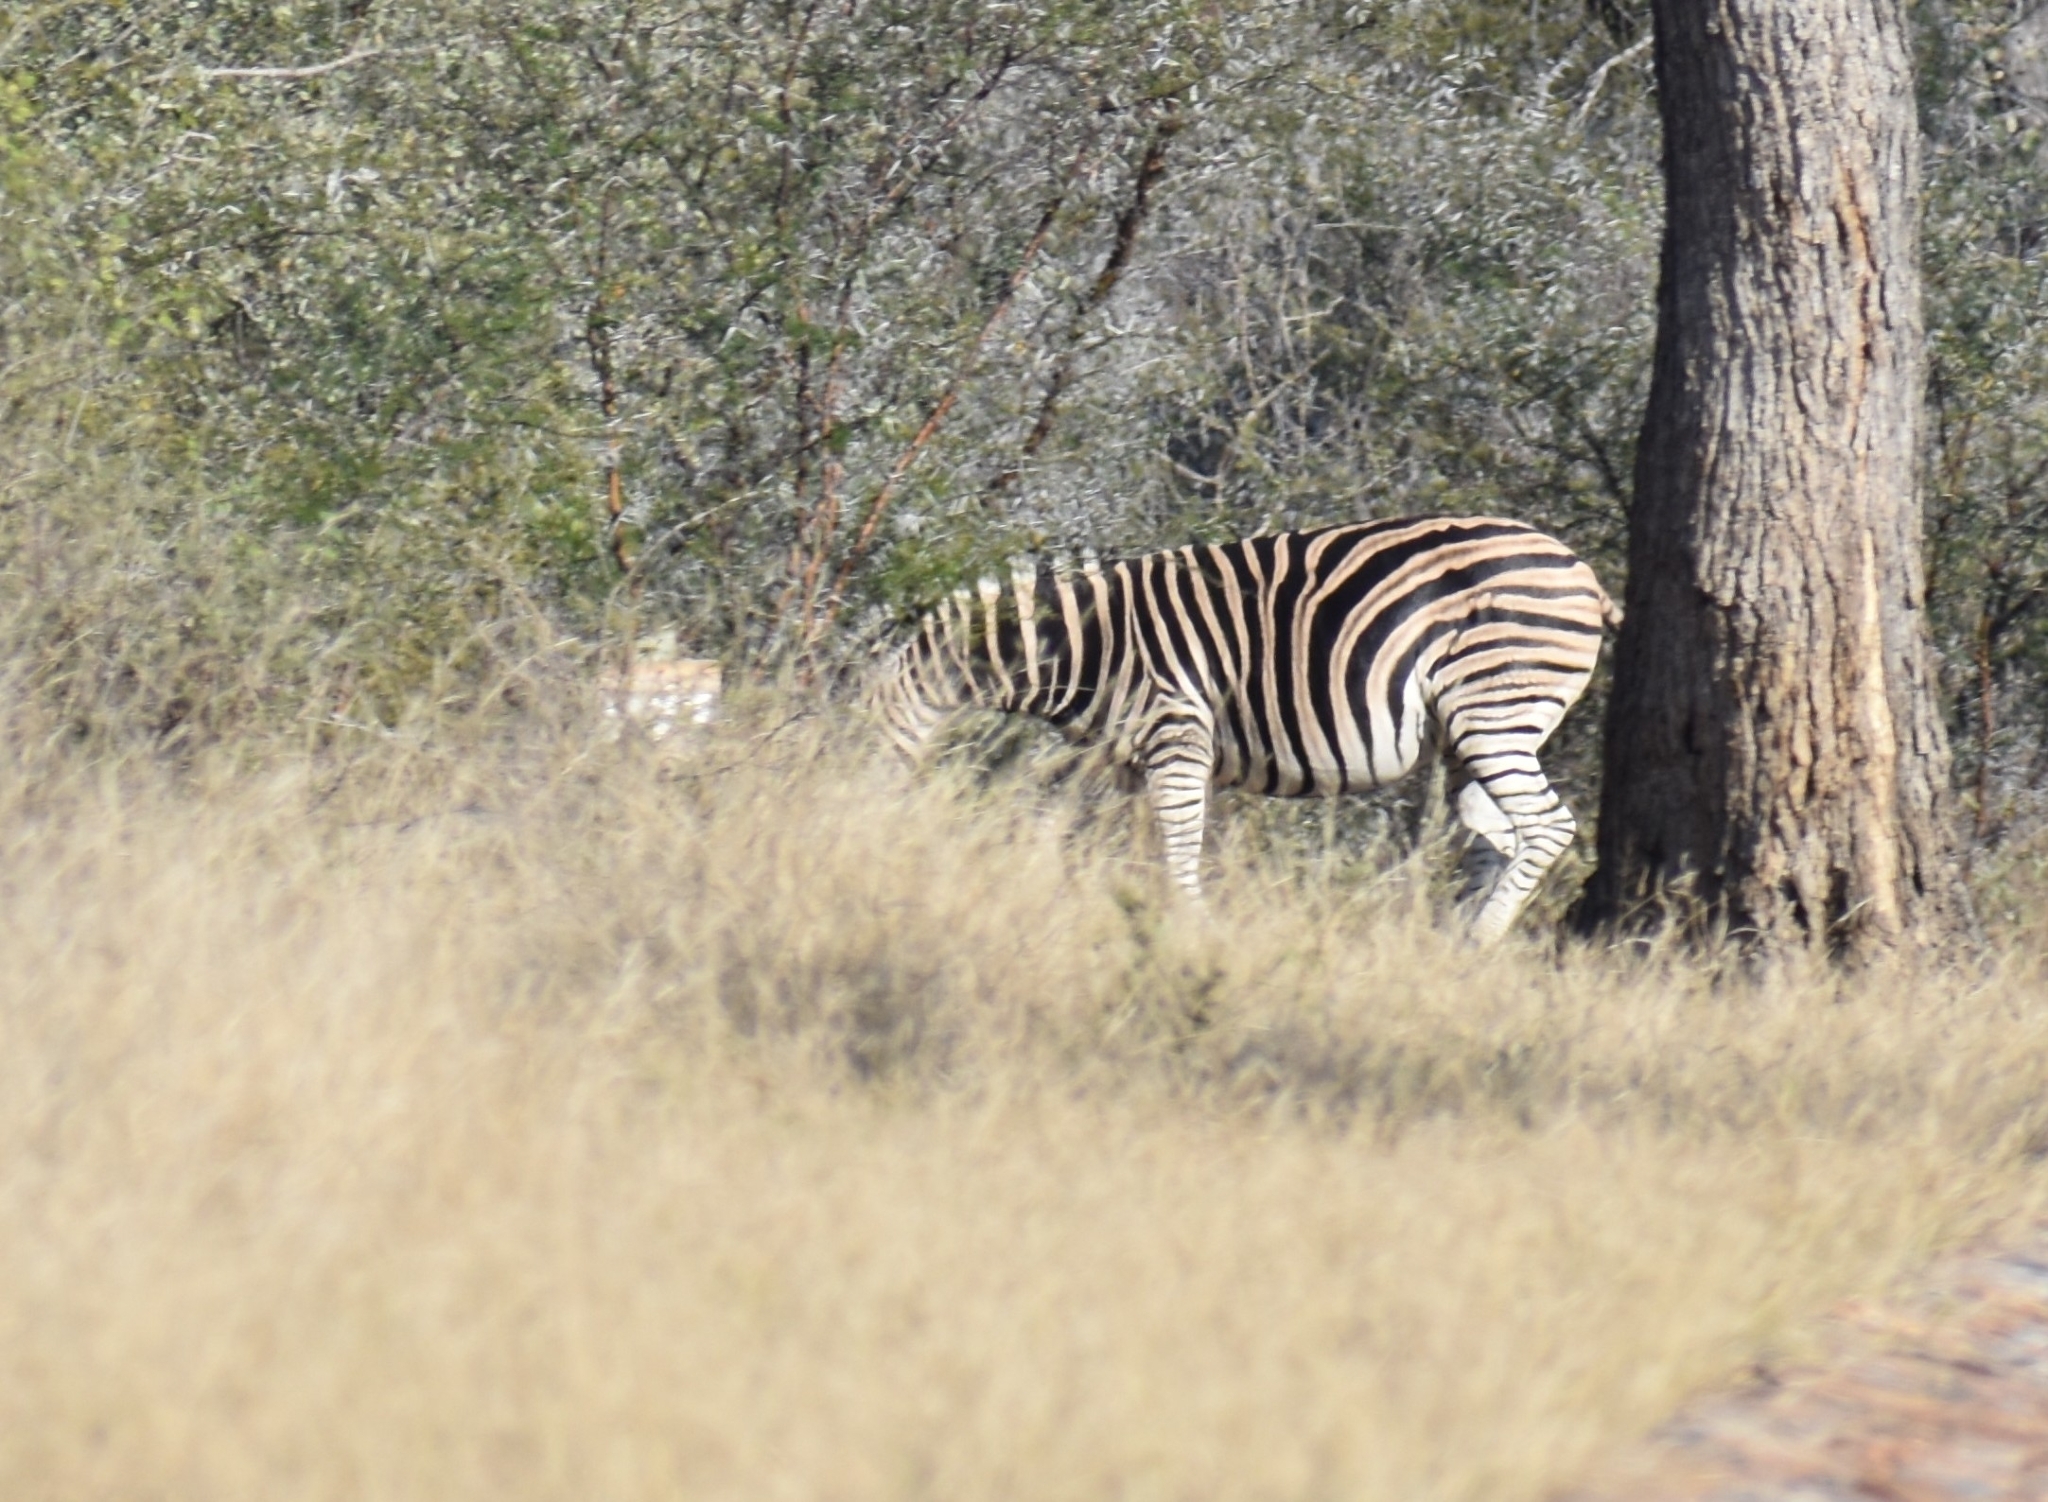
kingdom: Animalia
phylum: Chordata
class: Mammalia
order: Perissodactyla
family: Equidae
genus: Equus
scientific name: Equus quagga
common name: Plains zebra
